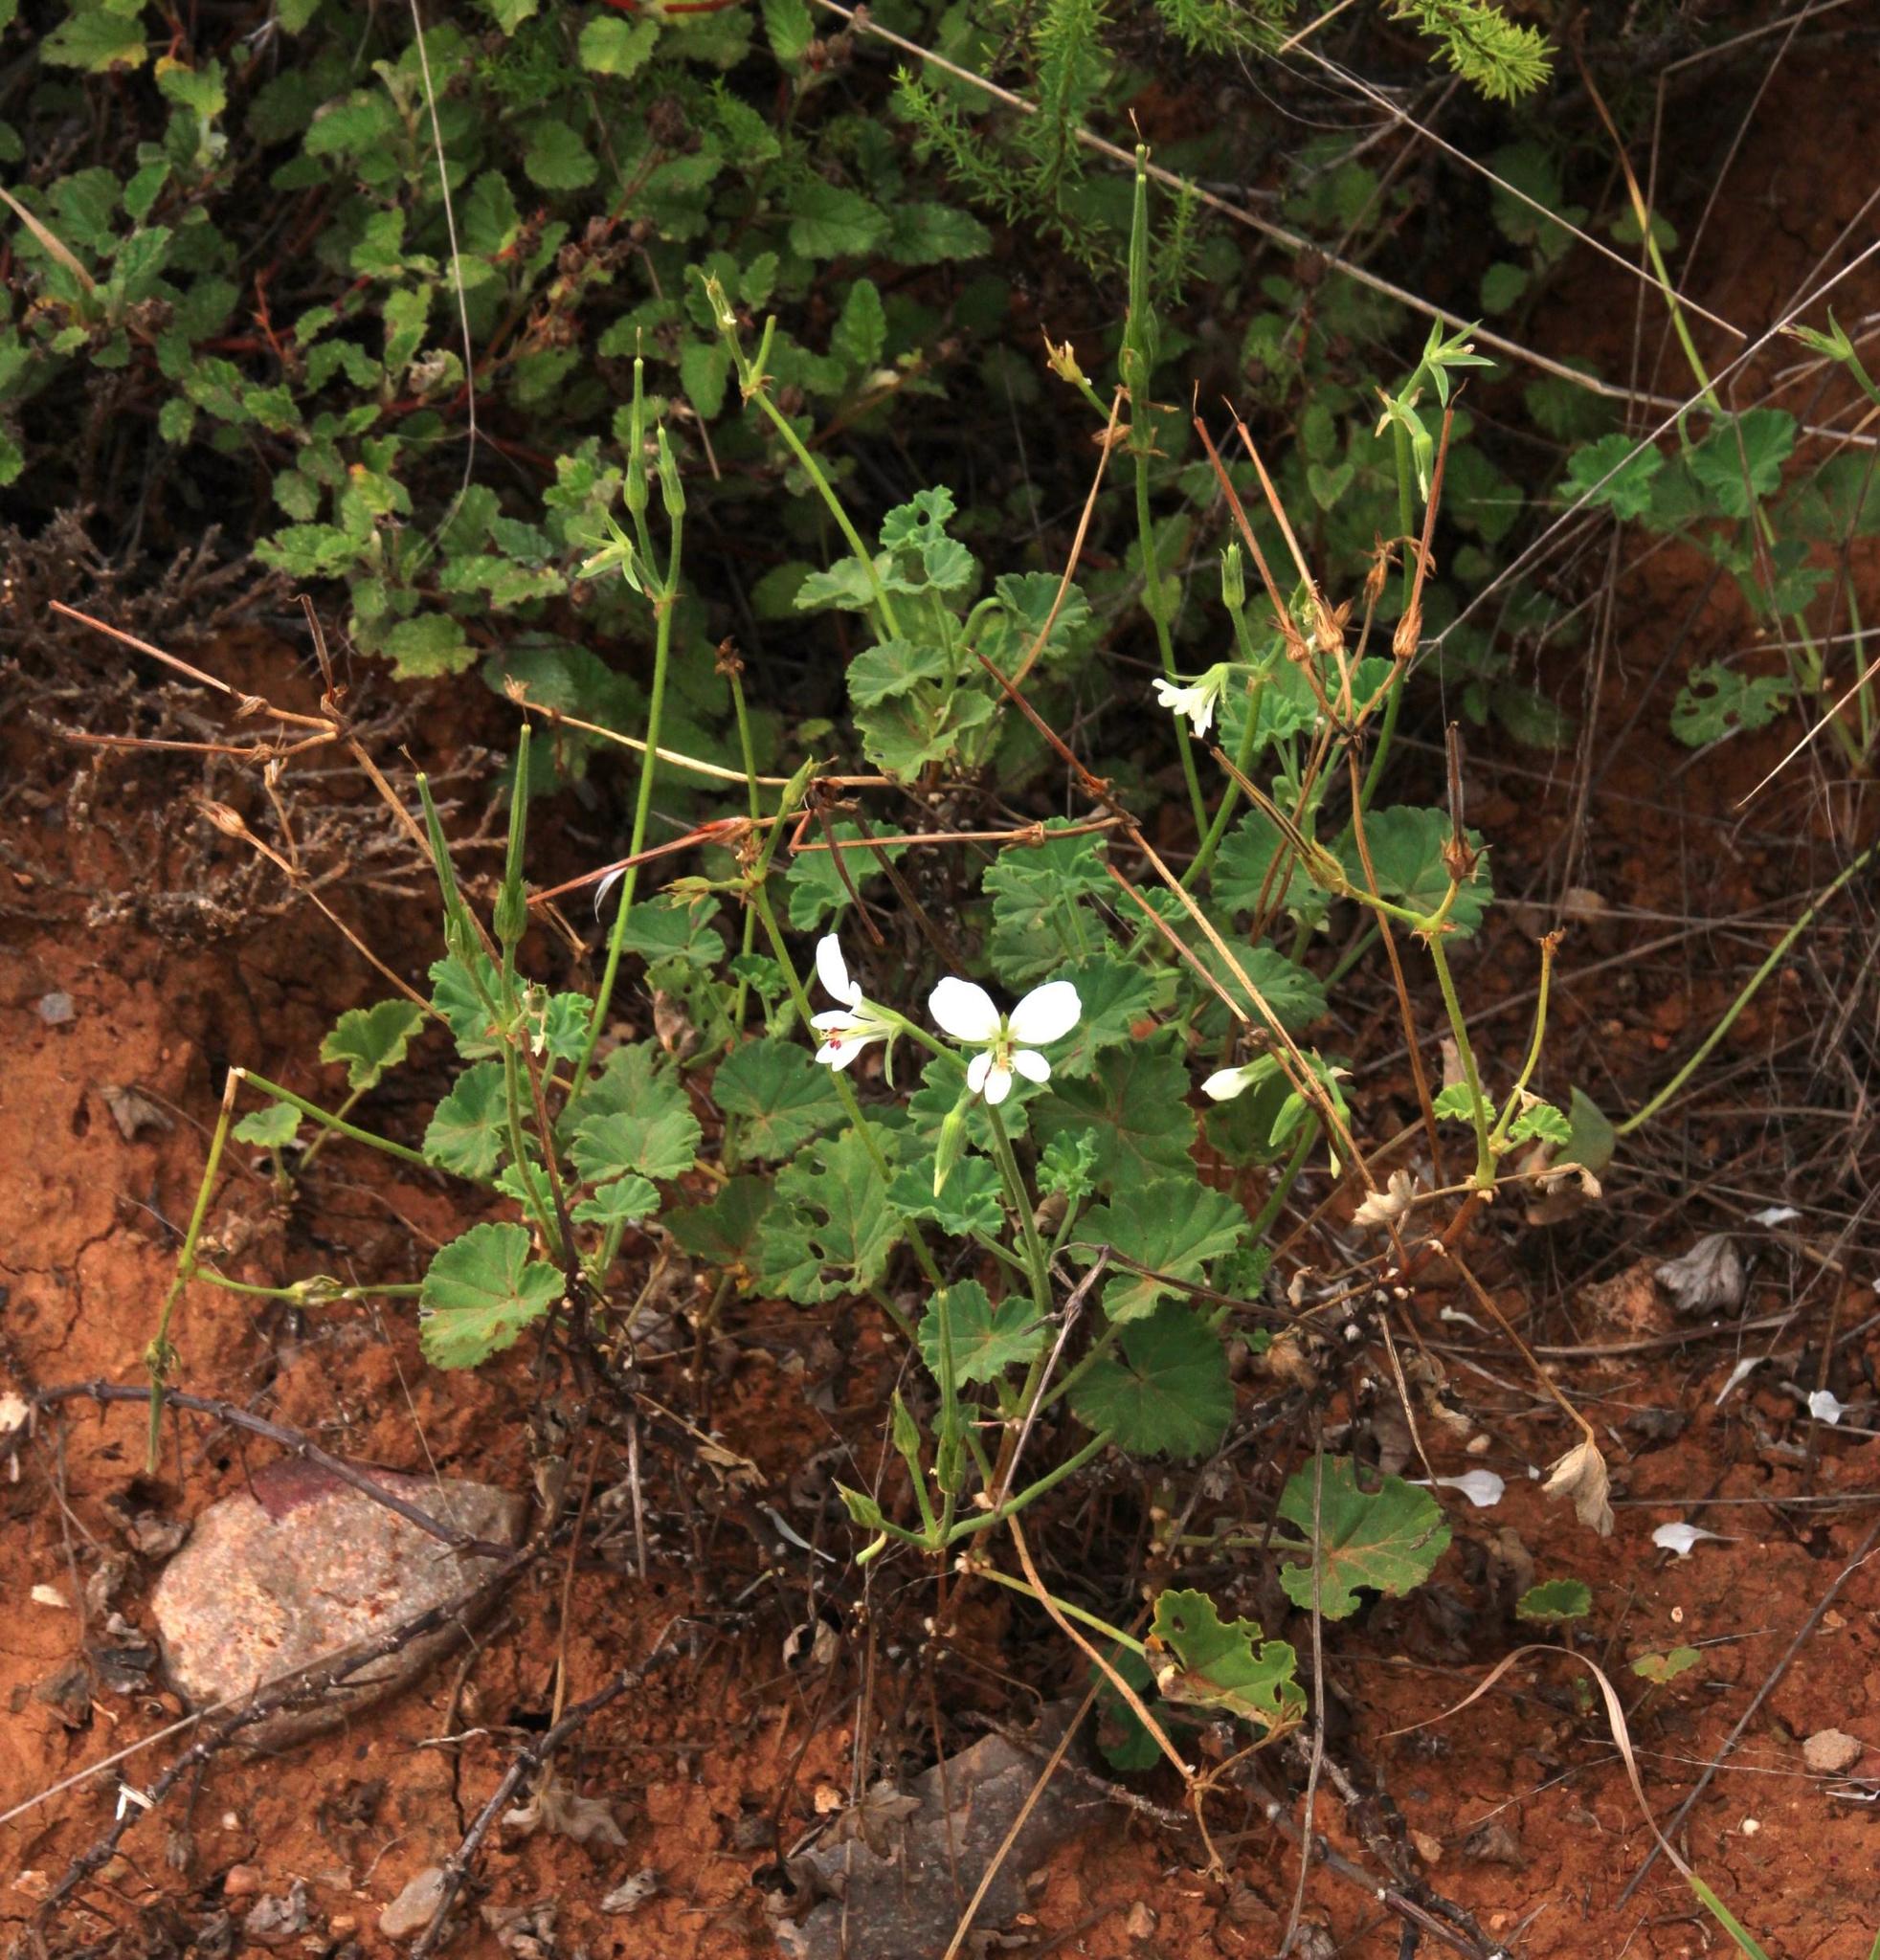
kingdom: Plantae
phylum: Tracheophyta
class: Magnoliopsida
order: Geraniales
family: Geraniaceae
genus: Pelargonium
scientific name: Pelargonium worcesterae
